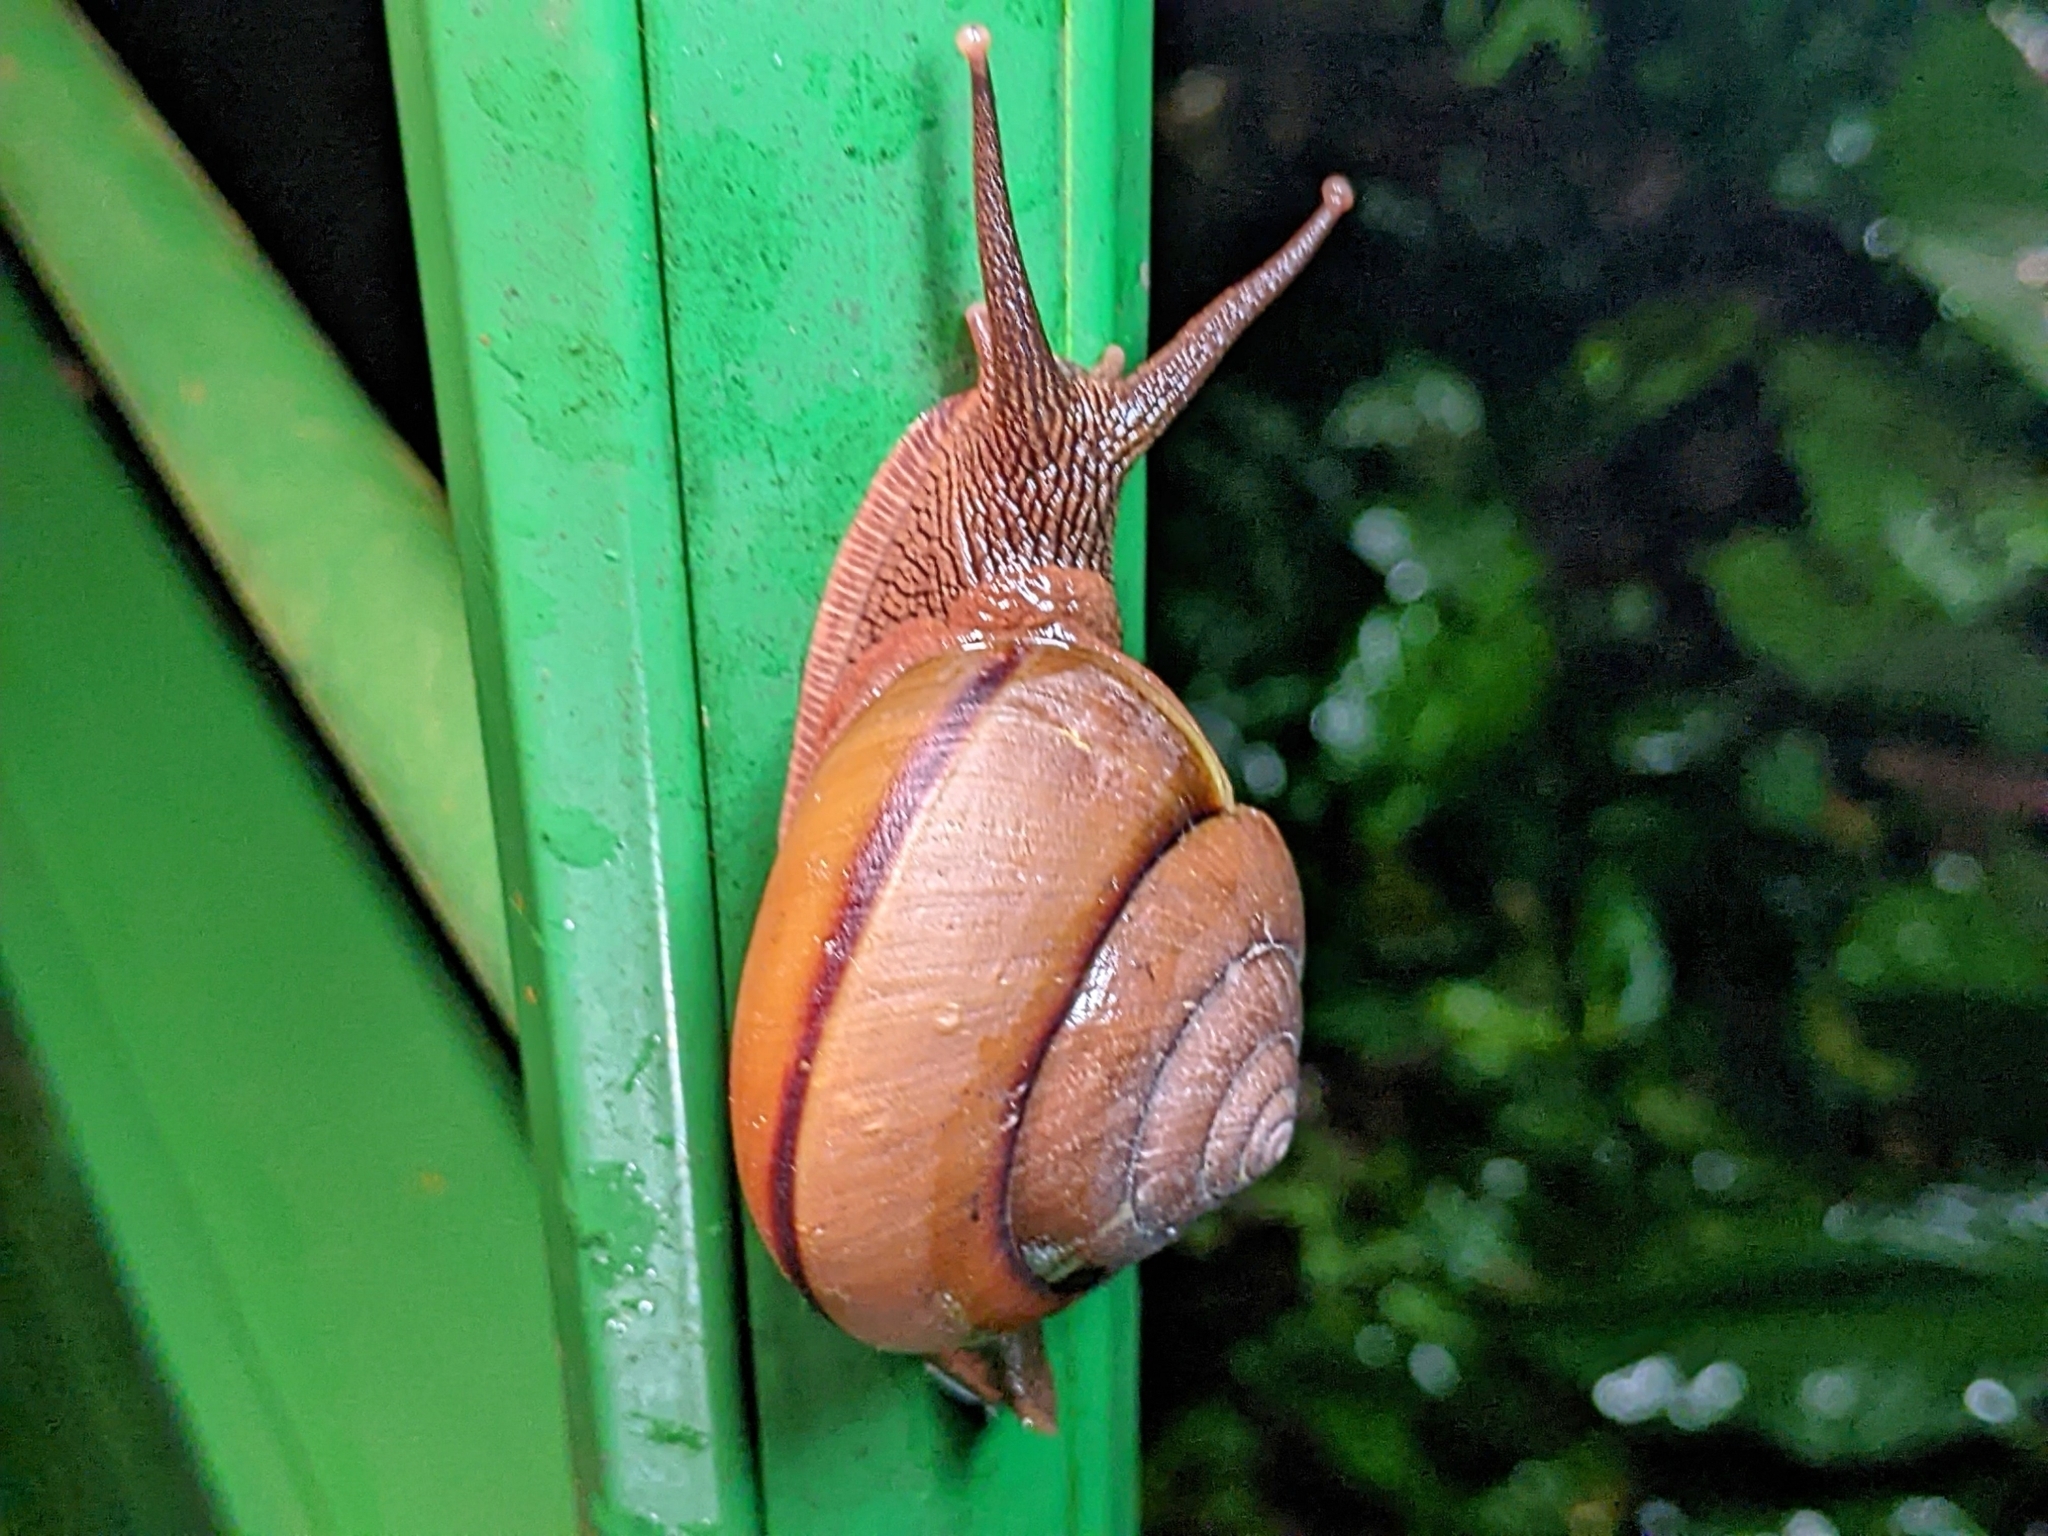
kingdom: Animalia
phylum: Mollusca
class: Gastropoda
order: Stylommatophora
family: Ariophantidae
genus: Hemiplecta
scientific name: Hemiplecta humphreysiana
